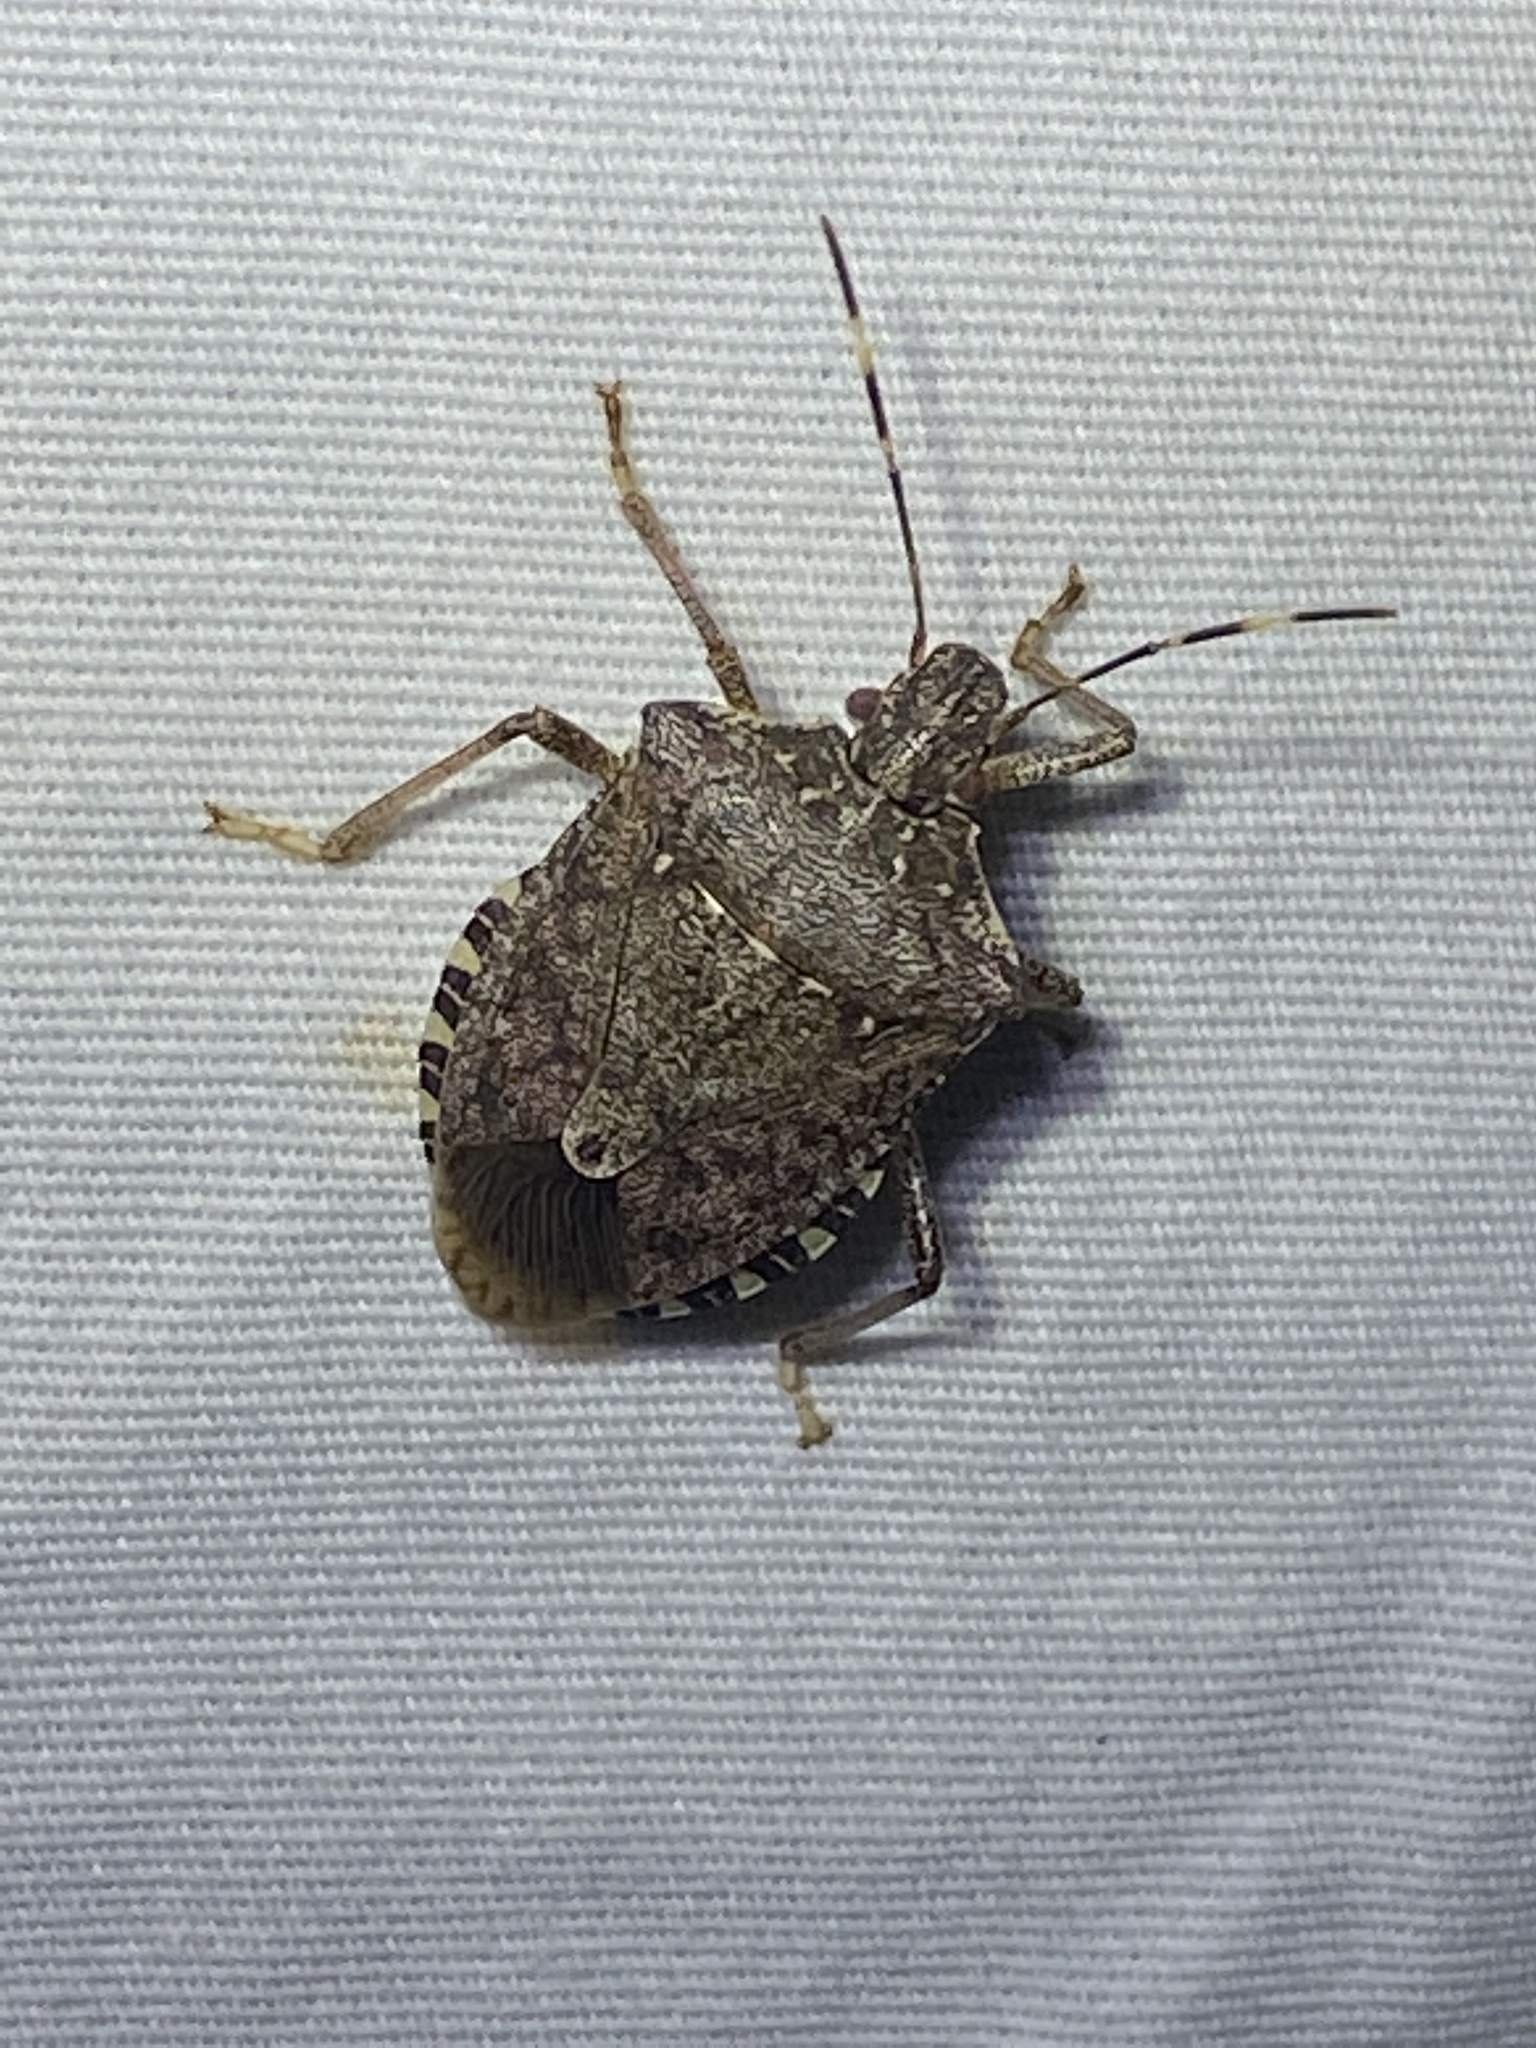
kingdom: Animalia
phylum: Arthropoda
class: Insecta
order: Hemiptera
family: Pentatomidae
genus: Halyomorpha
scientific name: Halyomorpha halys
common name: Brown marmorated stink bug
